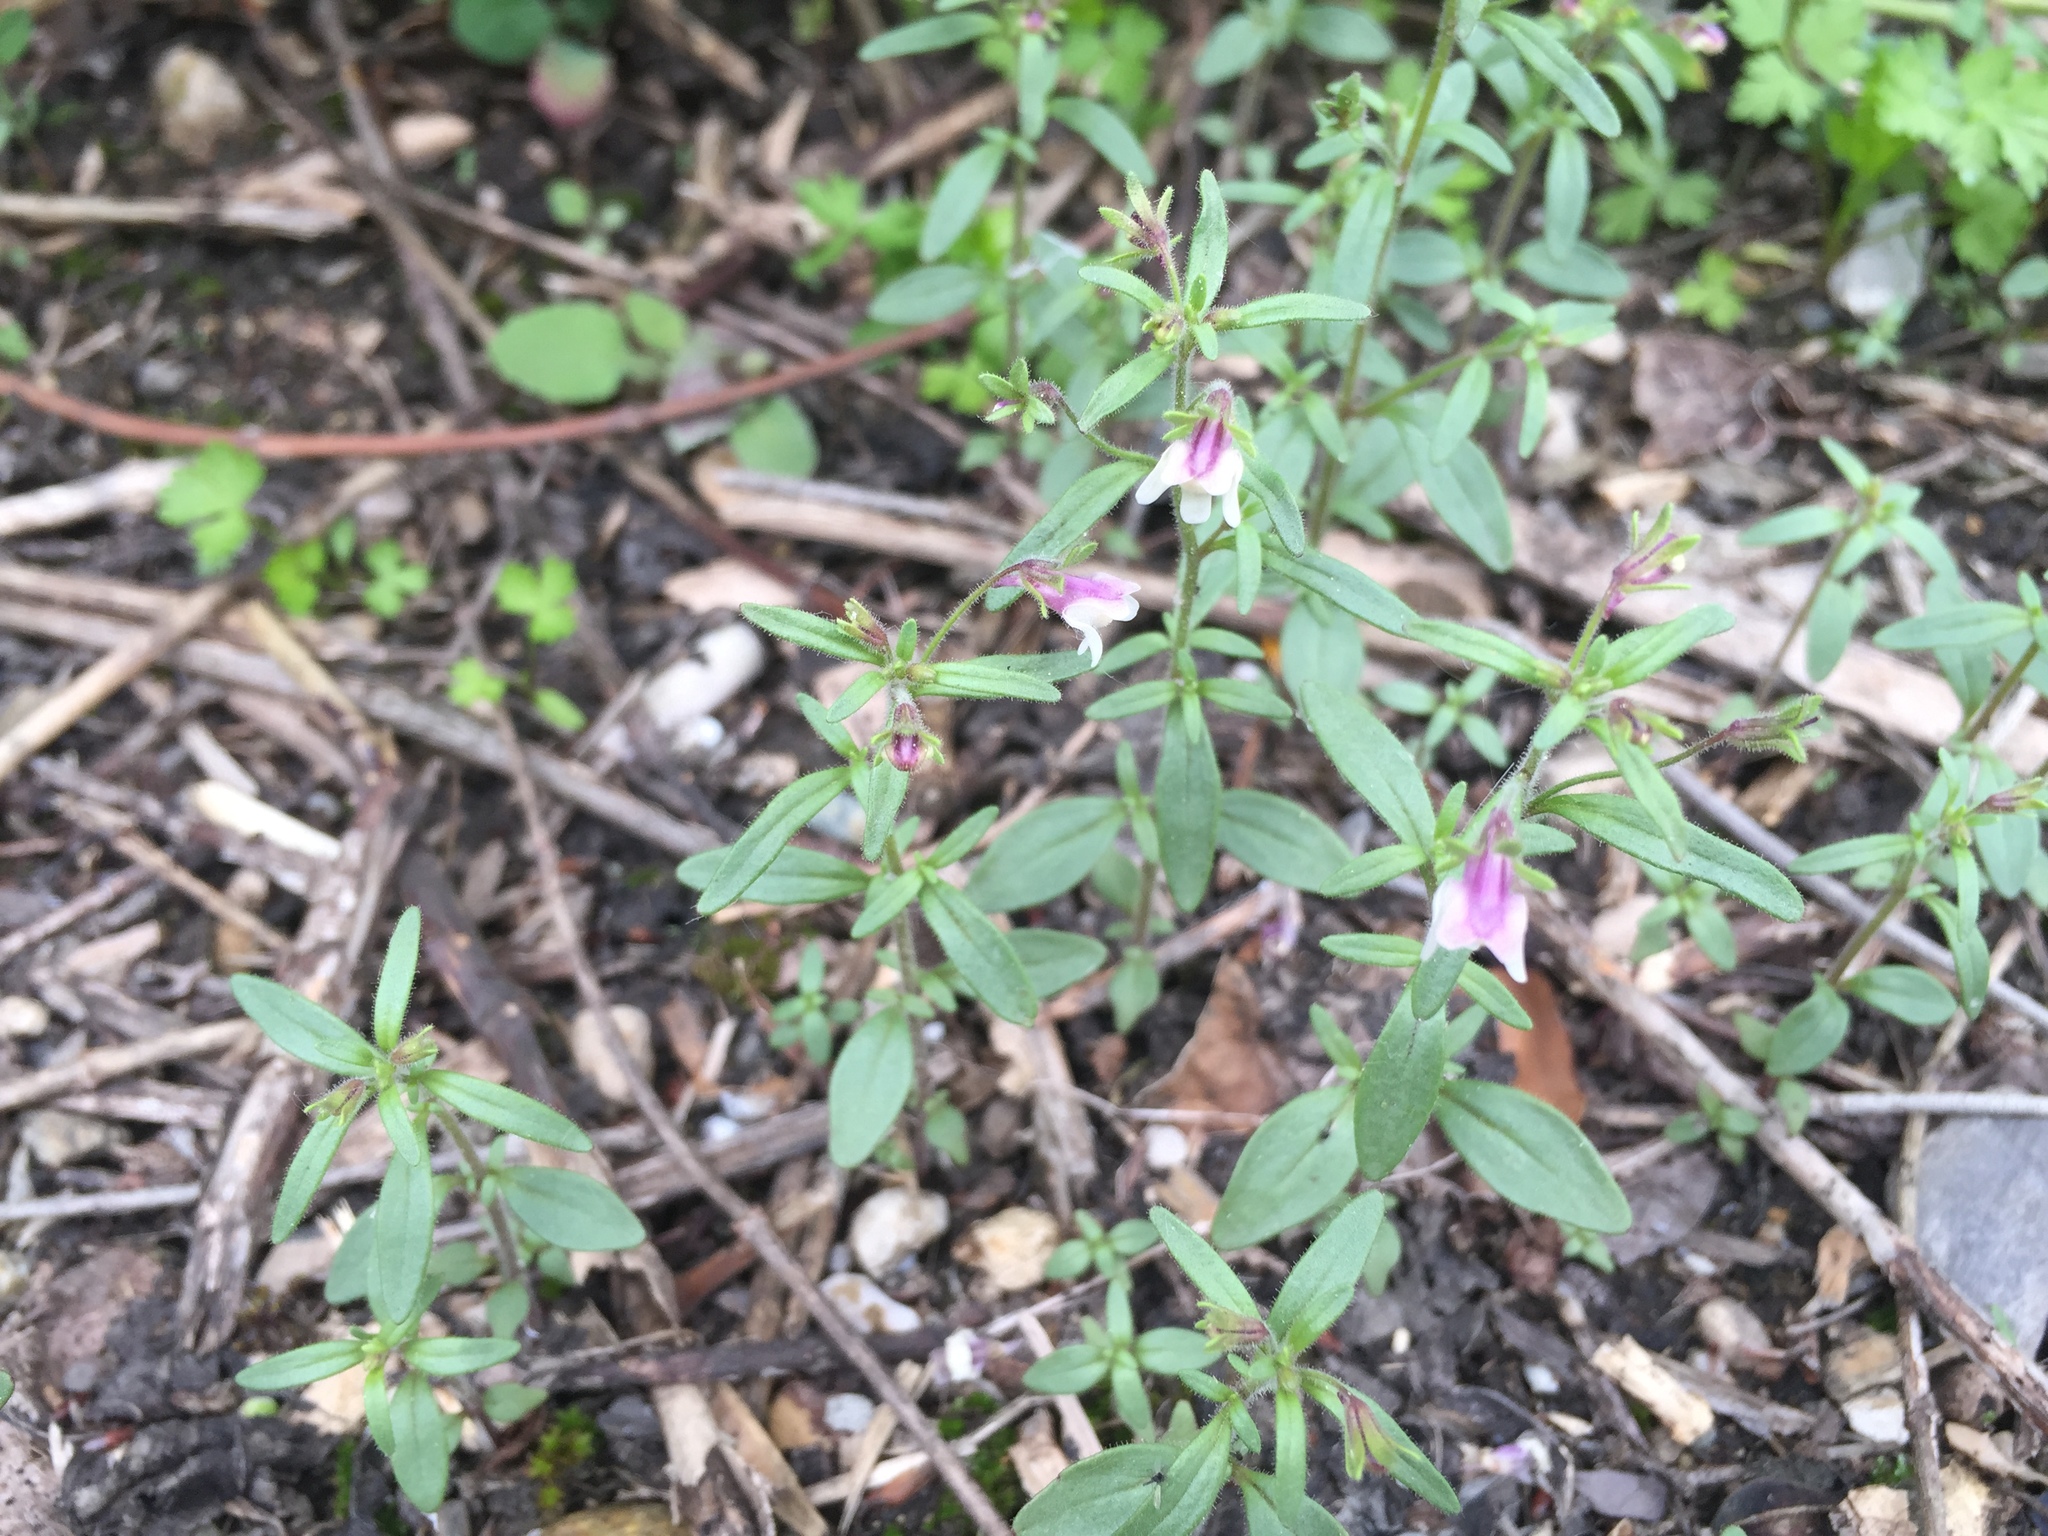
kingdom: Plantae
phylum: Tracheophyta
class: Magnoliopsida
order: Lamiales
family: Plantaginaceae
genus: Chaenorhinum
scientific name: Chaenorhinum minus
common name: Dwarf snapdragon
